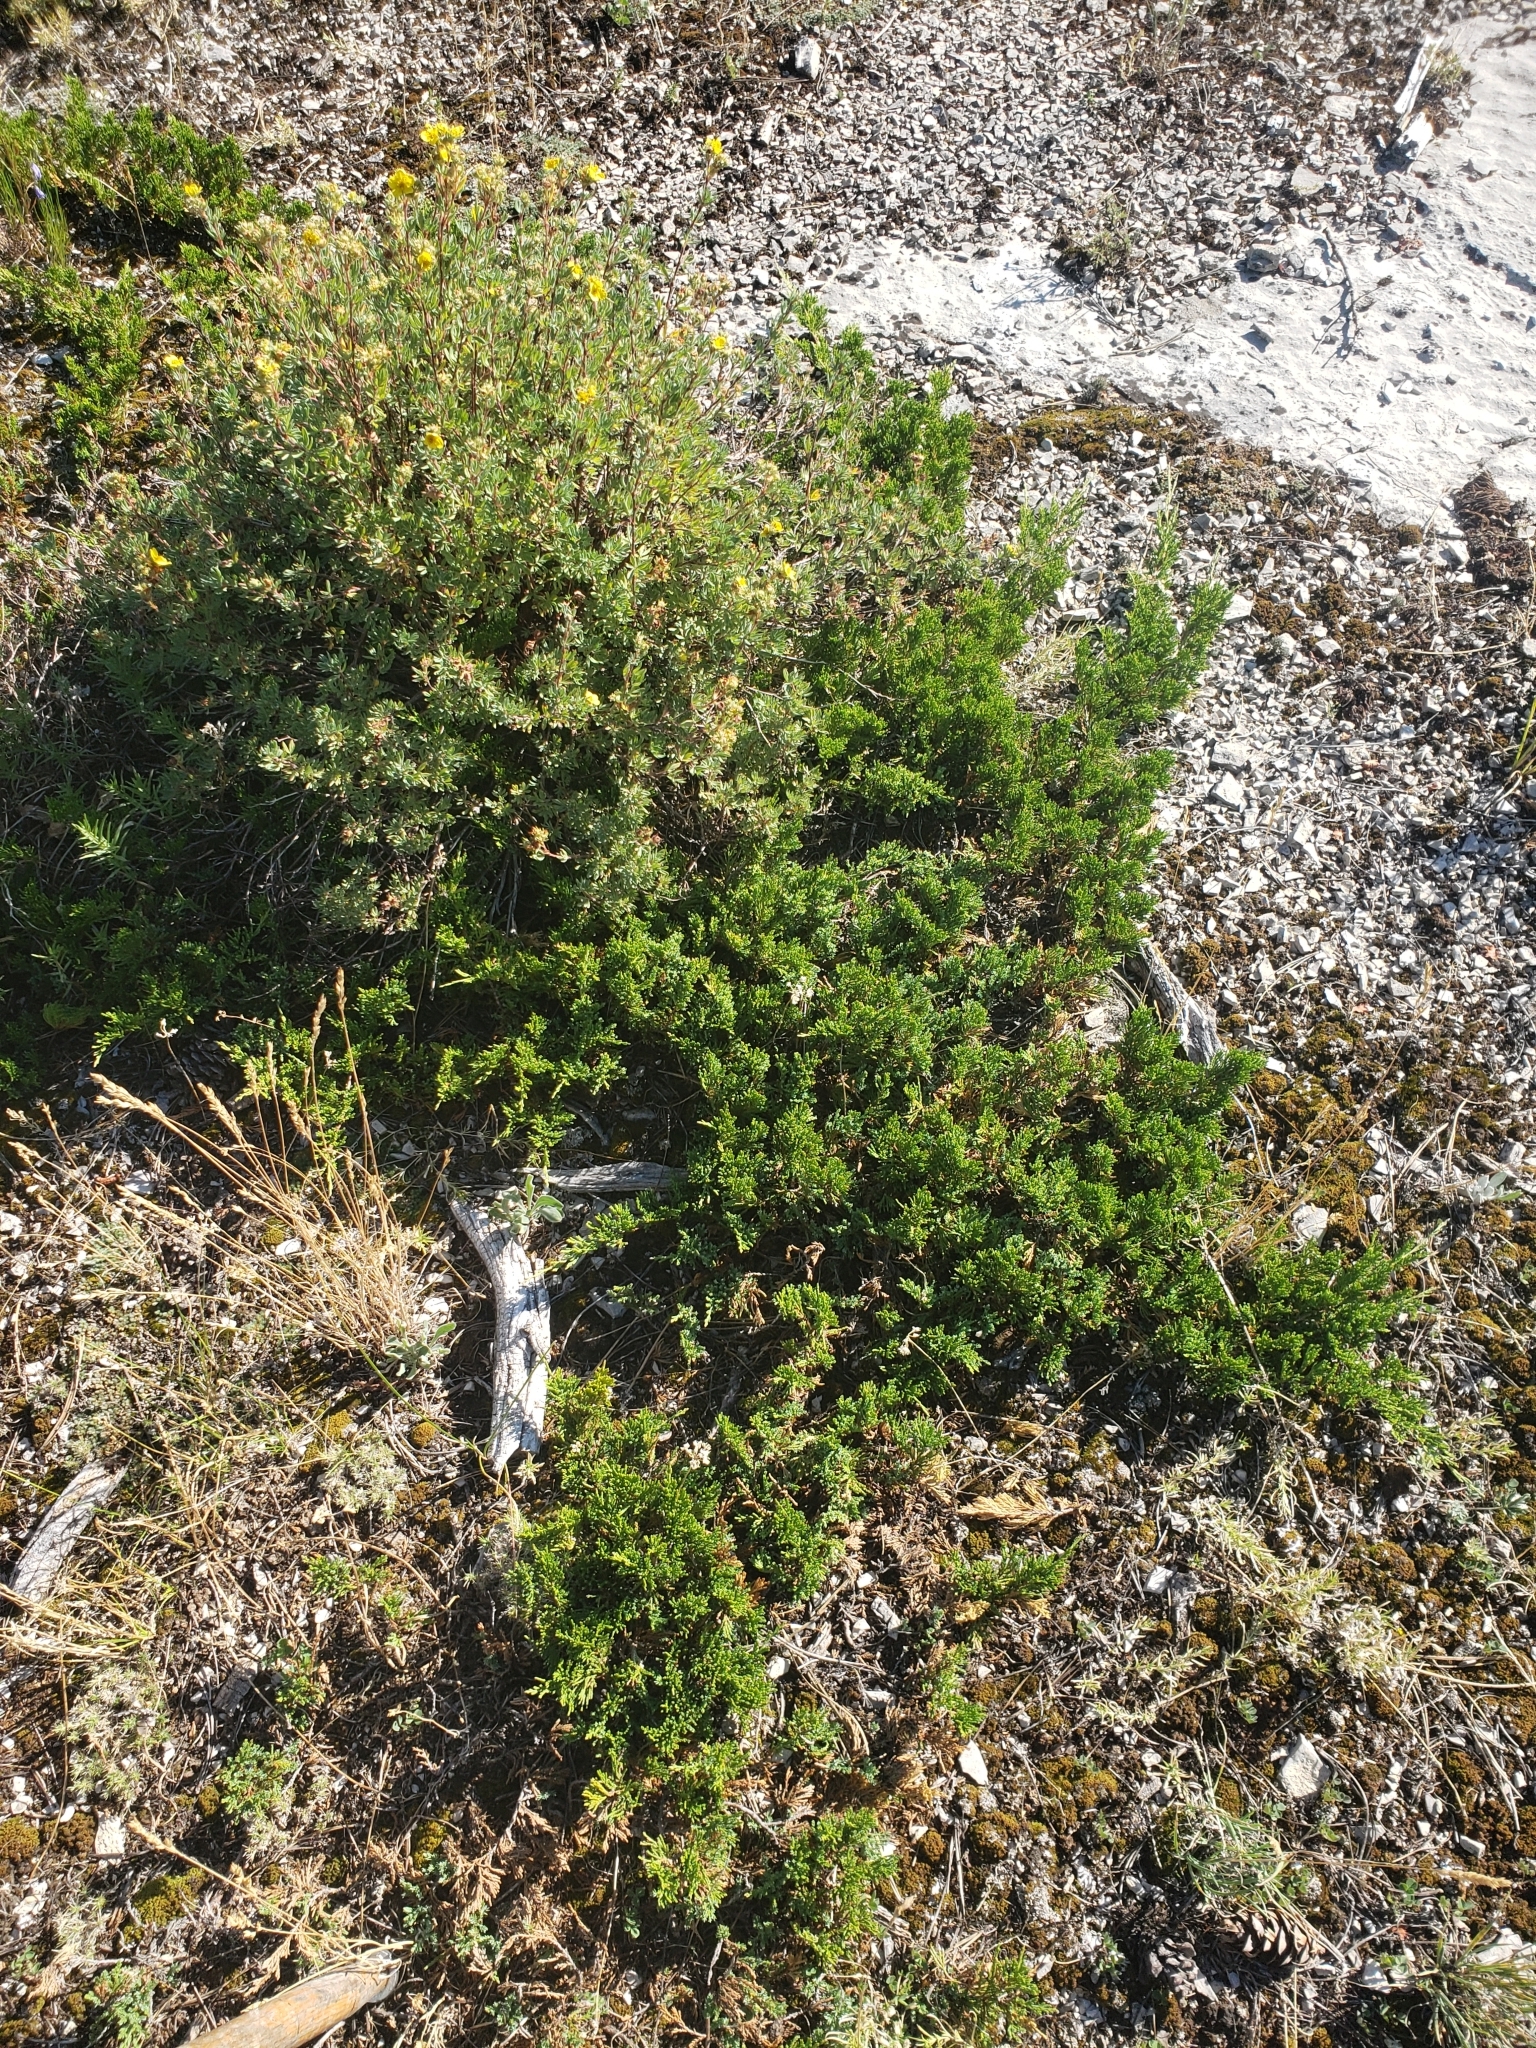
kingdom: Plantae
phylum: Tracheophyta
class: Pinopsida
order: Pinales
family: Cupressaceae
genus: Juniperus
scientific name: Juniperus horizontalis
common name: Creeping juniper
